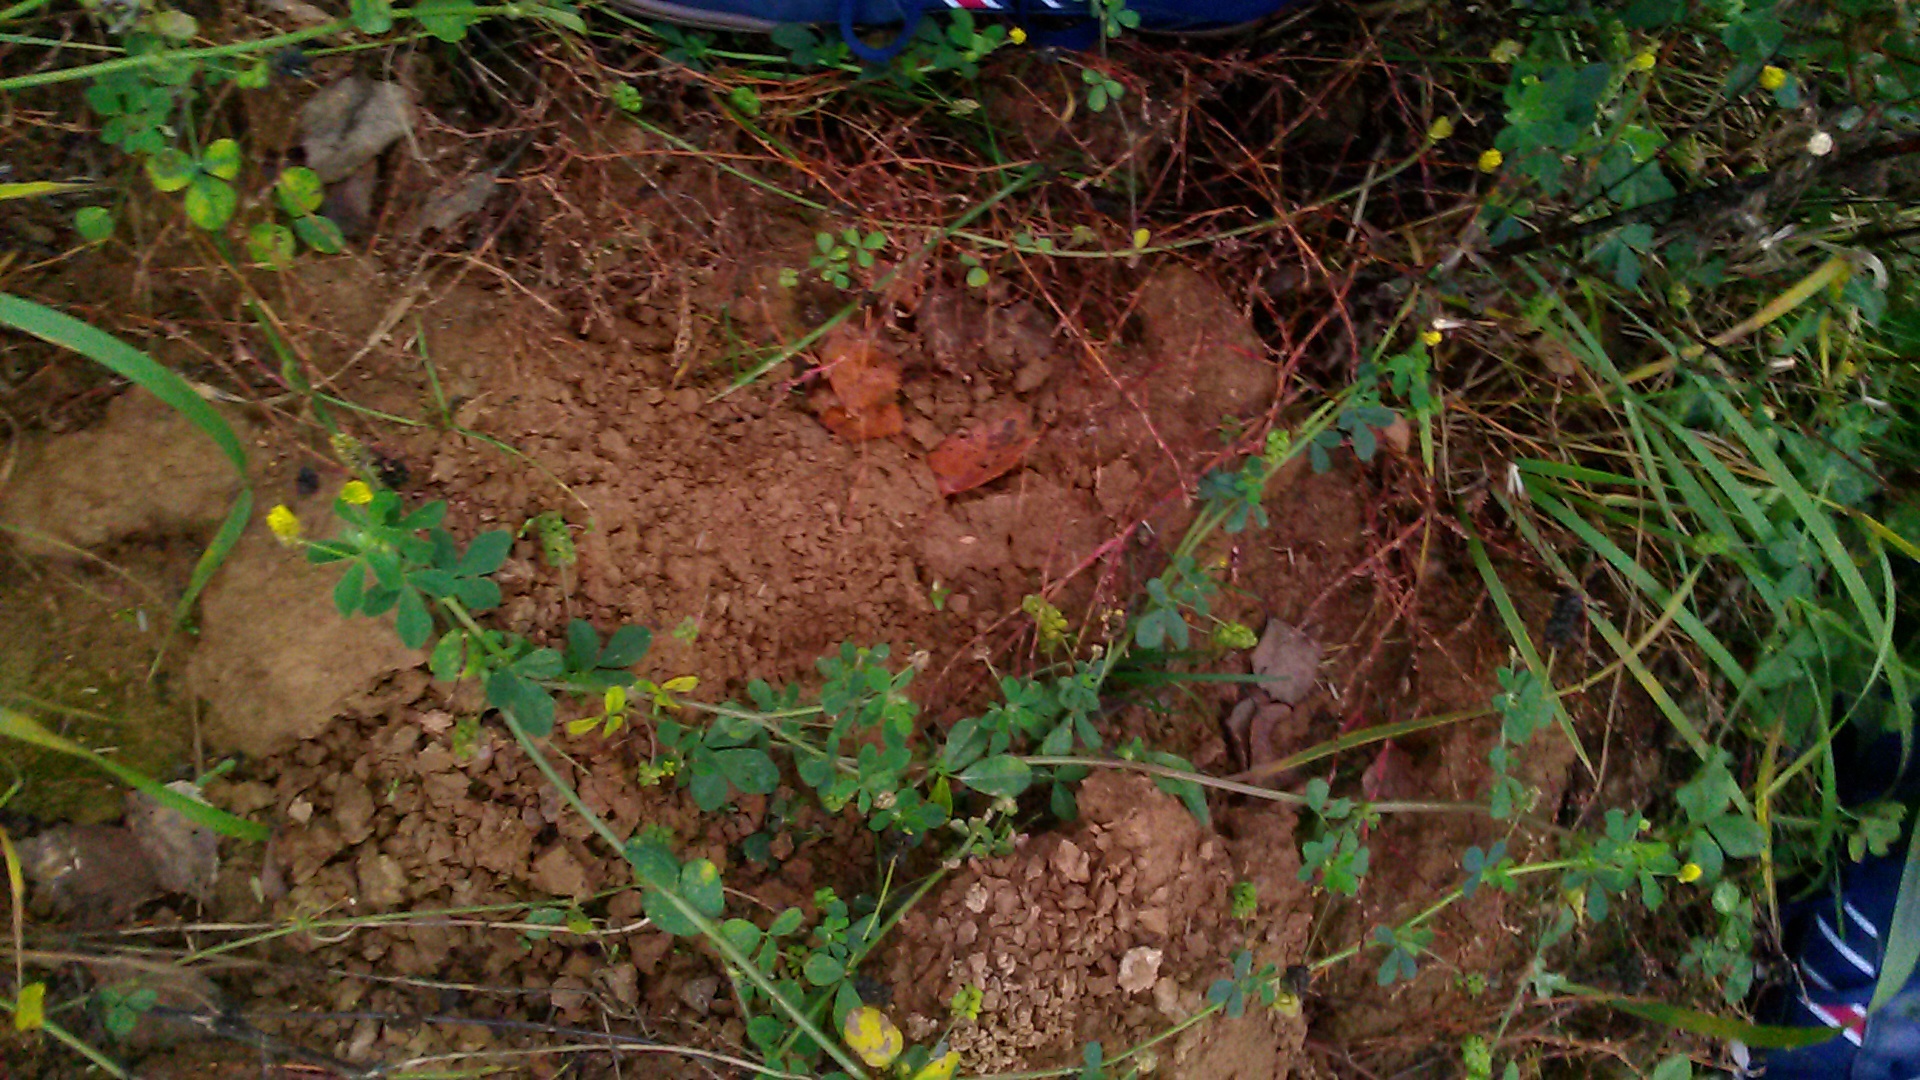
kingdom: Plantae
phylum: Tracheophyta
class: Magnoliopsida
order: Fabales
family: Fabaceae
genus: Medicago
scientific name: Medicago lupulina
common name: Black medick
